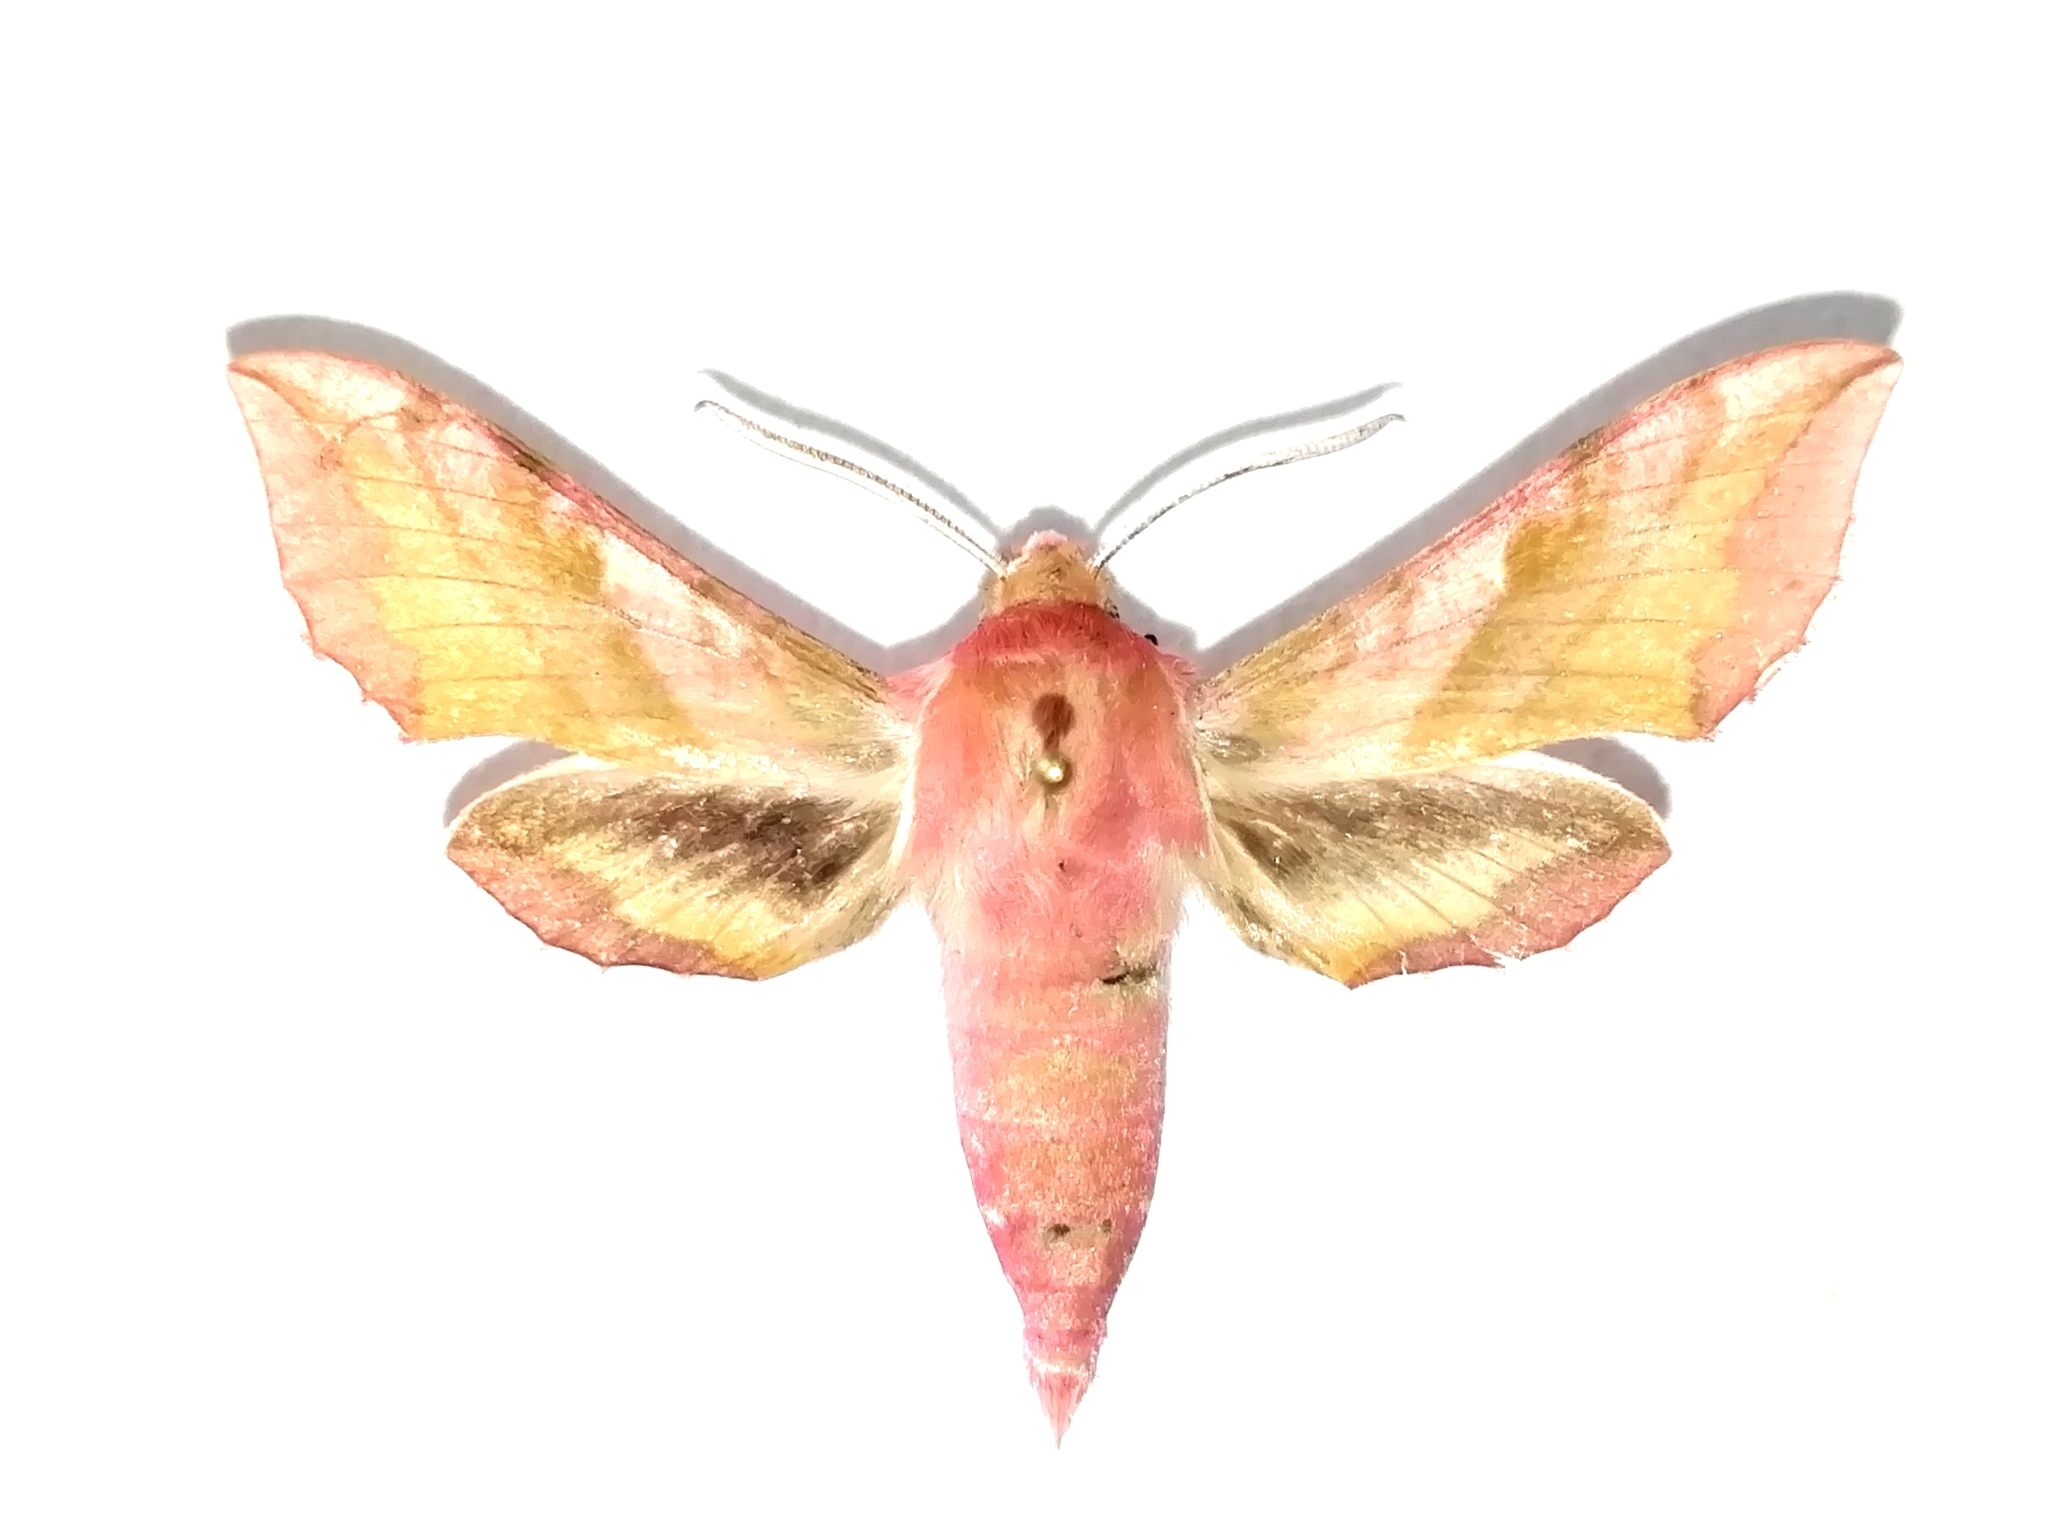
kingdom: Animalia
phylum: Arthropoda
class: Insecta
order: Lepidoptera
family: Sphingidae
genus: Deilephila
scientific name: Deilephila porcellus
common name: Small elephant hawk-moth
